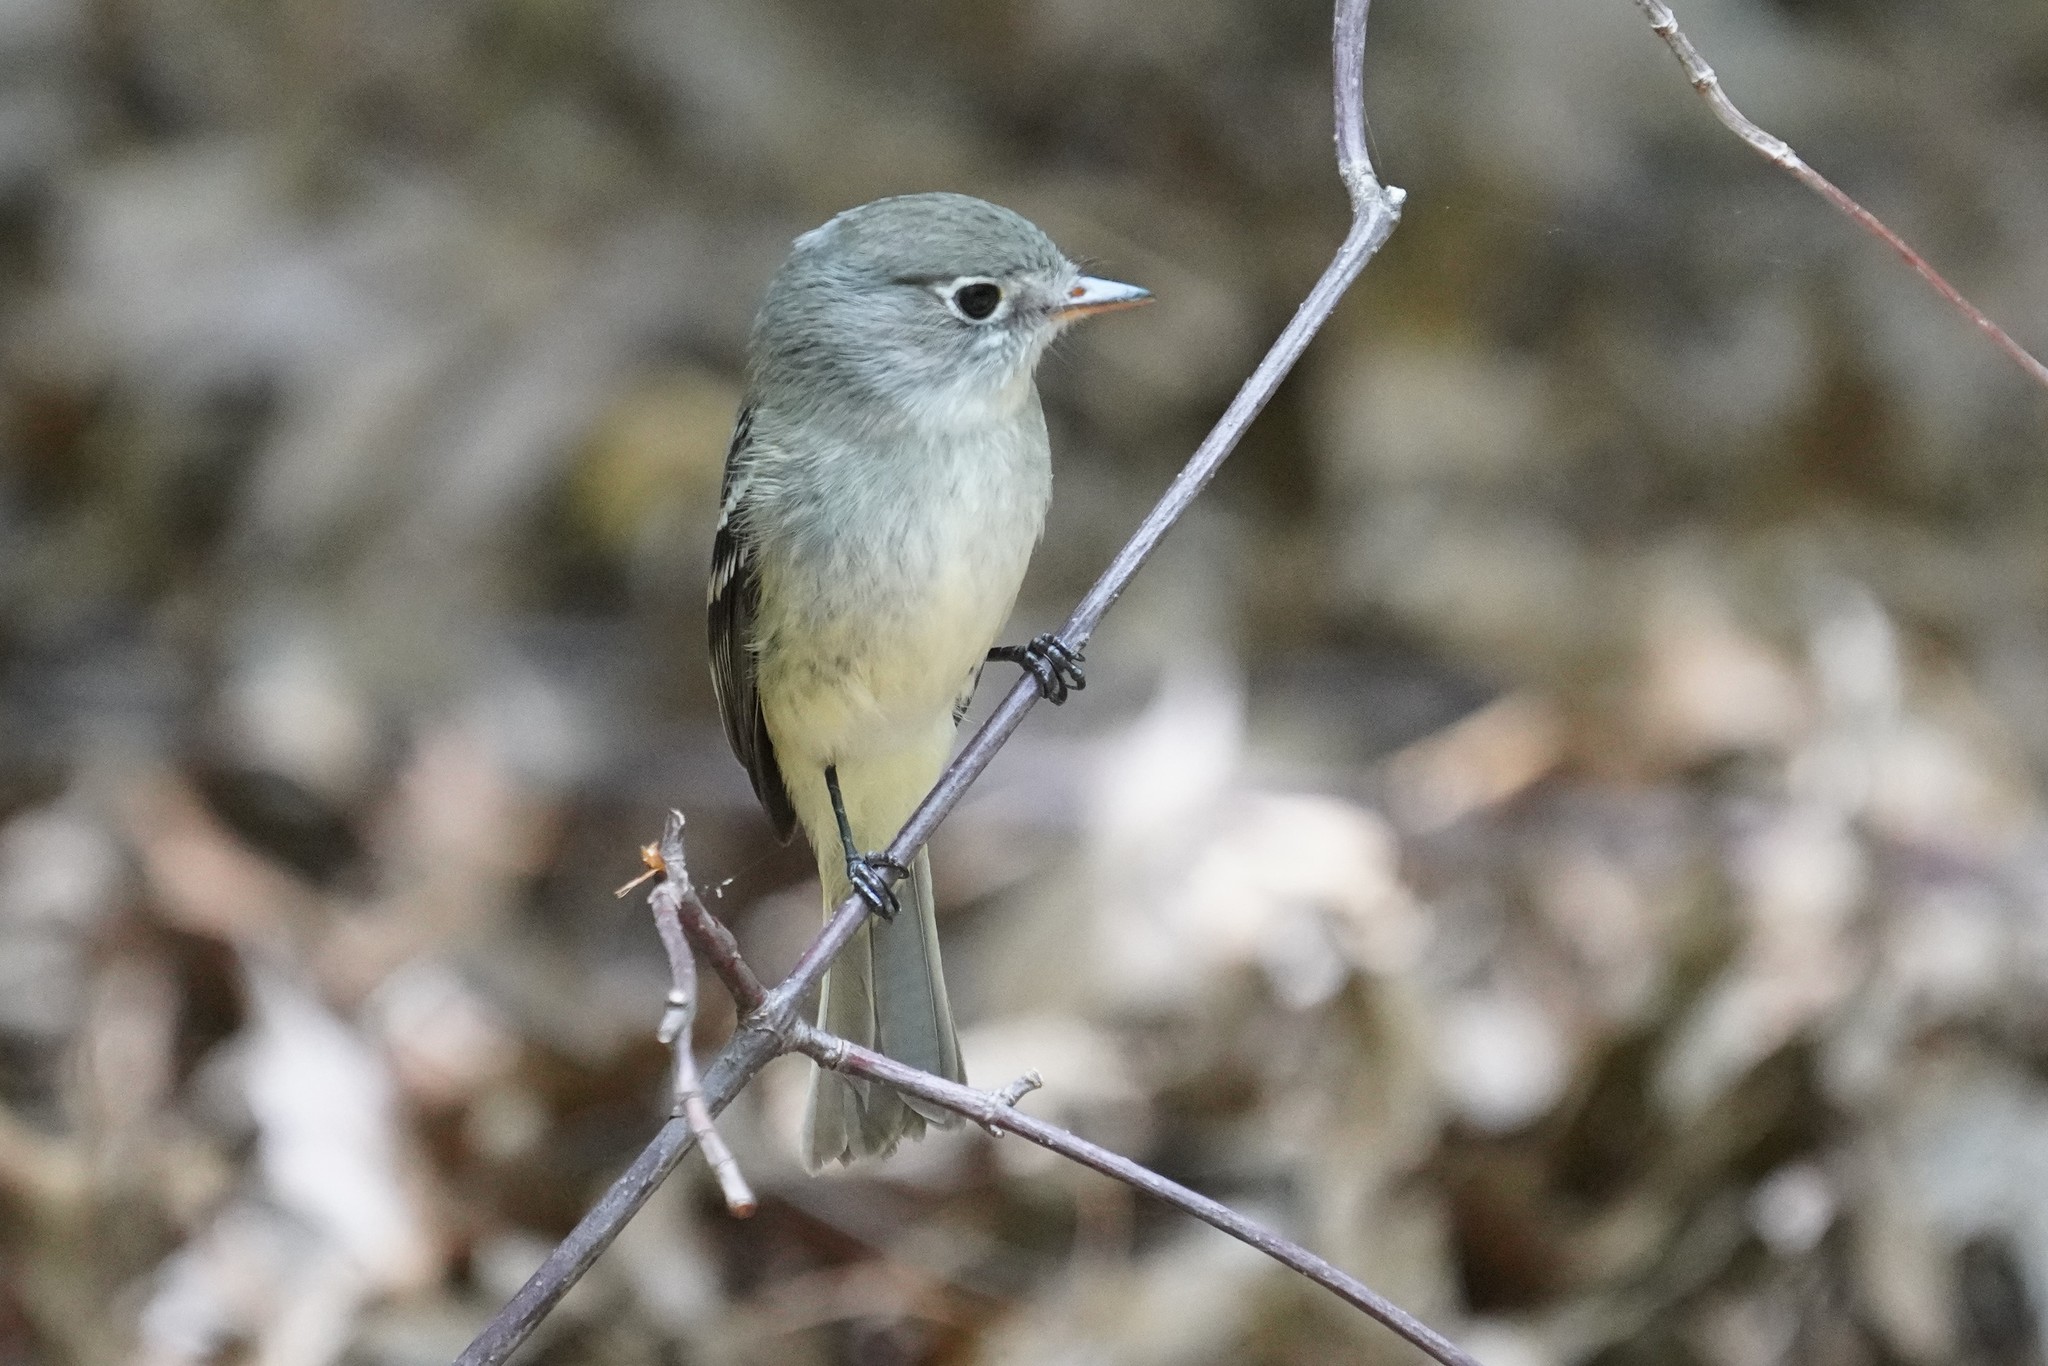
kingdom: Animalia
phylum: Chordata
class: Aves
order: Passeriformes
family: Tyrannidae
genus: Empidonax
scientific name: Empidonax minimus
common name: Least flycatcher
